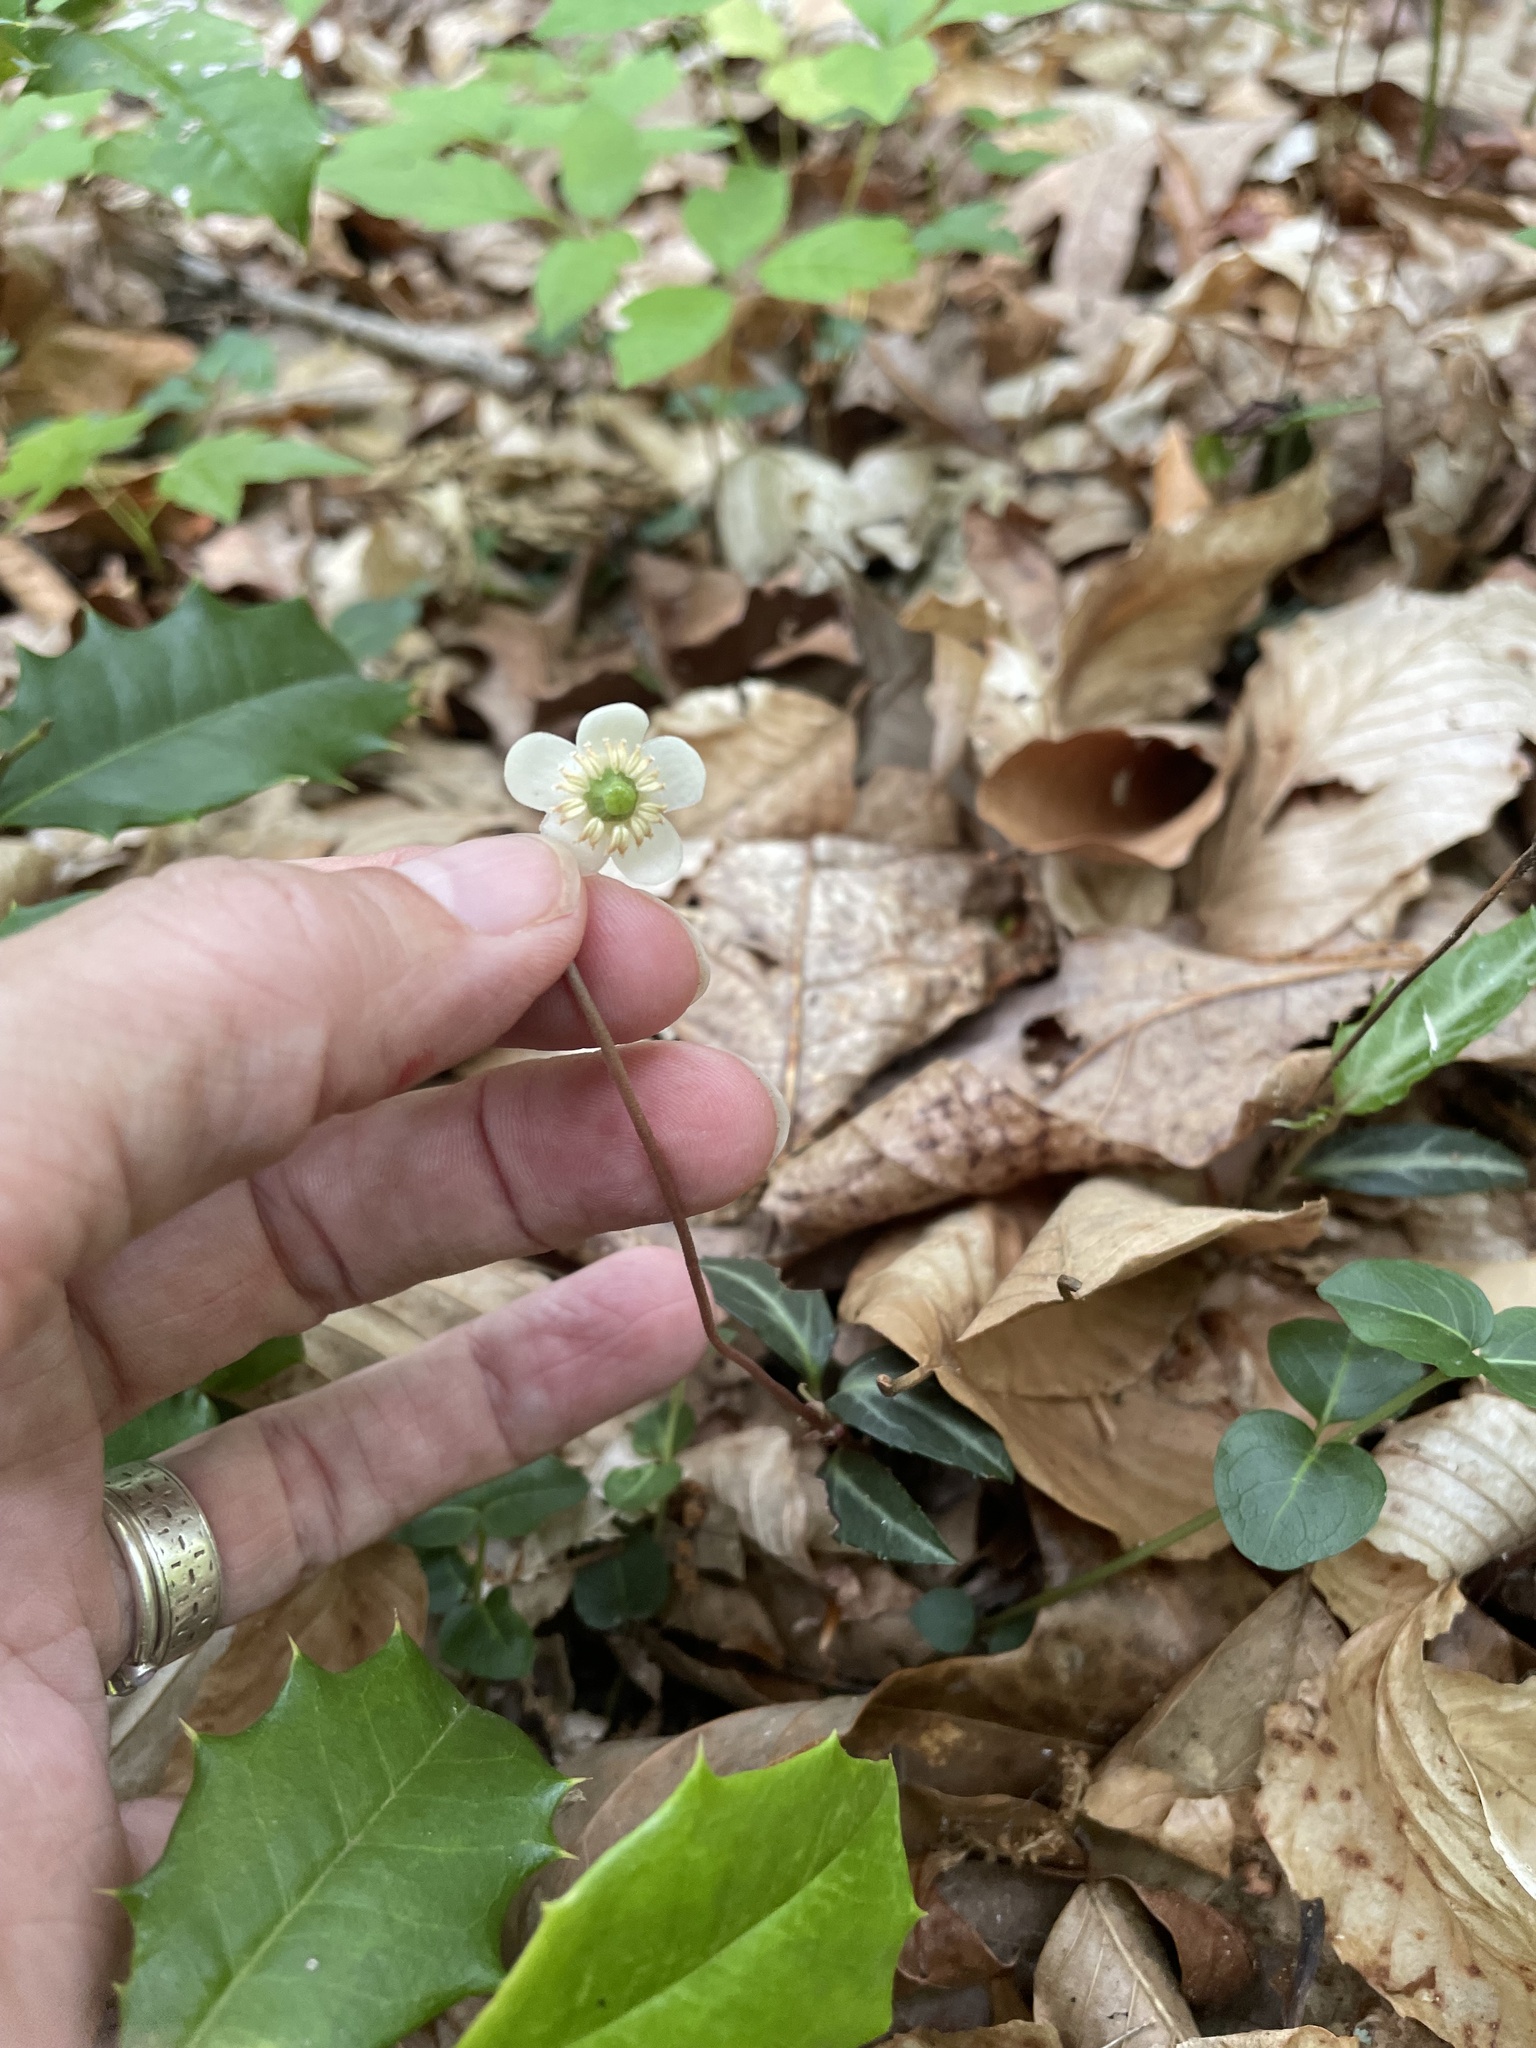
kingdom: Plantae
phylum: Tracheophyta
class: Magnoliopsida
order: Ericales
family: Ericaceae
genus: Chimaphila
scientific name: Chimaphila maculata
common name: Spotted pipsissewa
